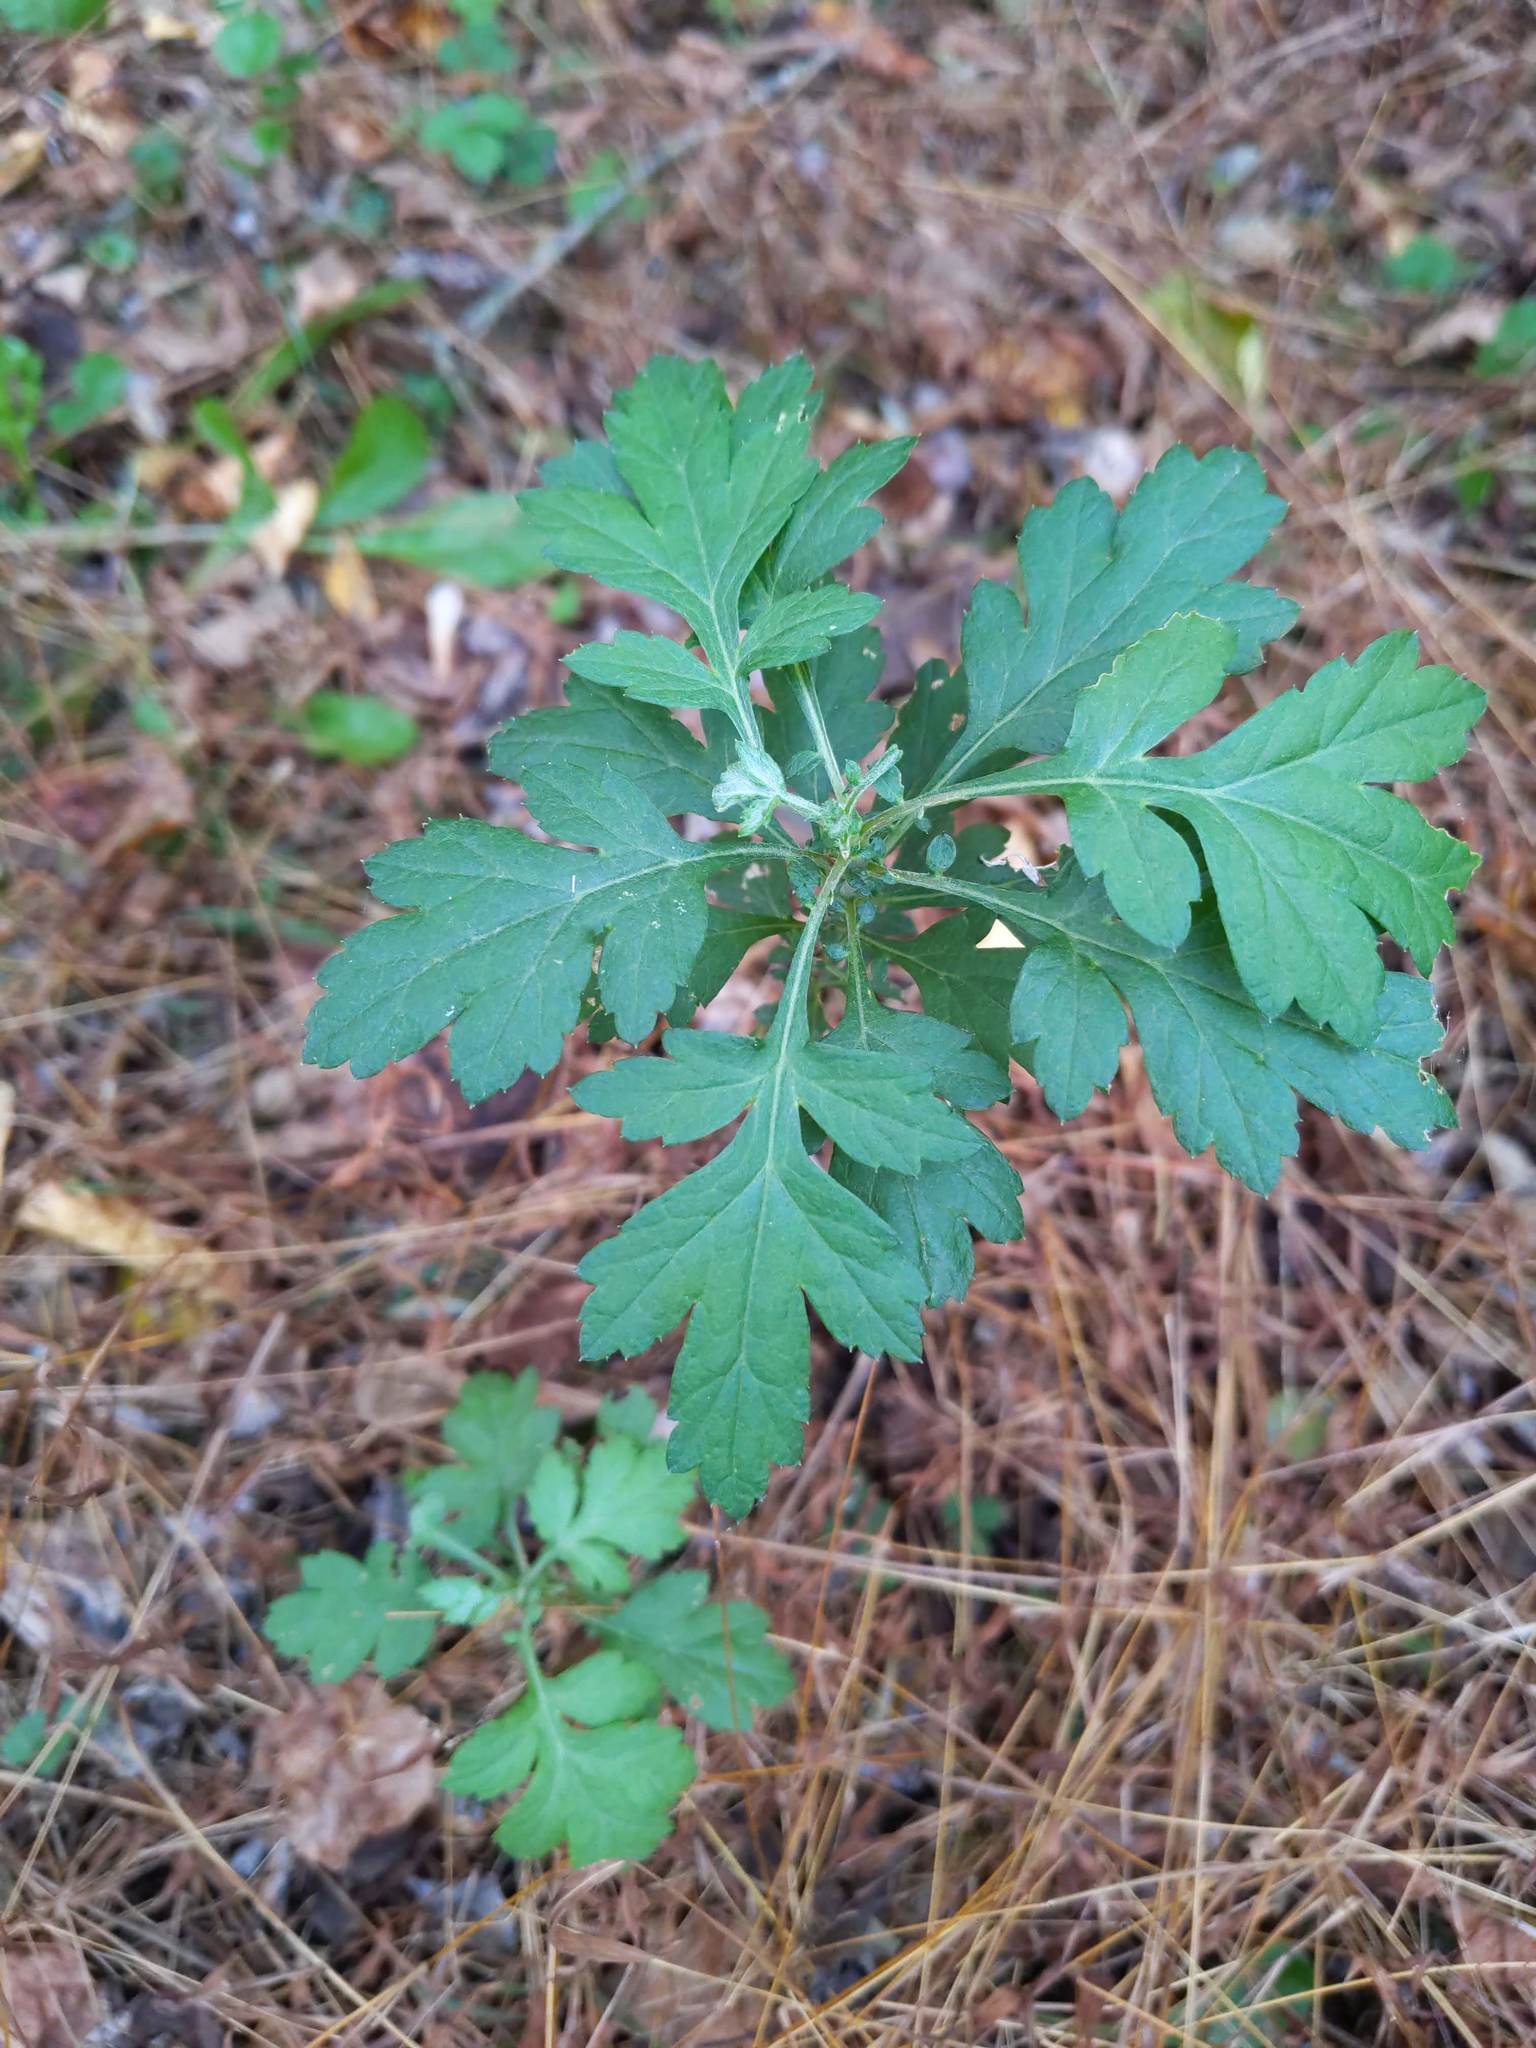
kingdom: Plantae
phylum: Tracheophyta
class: Magnoliopsida
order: Asterales
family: Asteraceae
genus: Artemisia
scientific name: Artemisia vulgaris
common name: Mugwort
